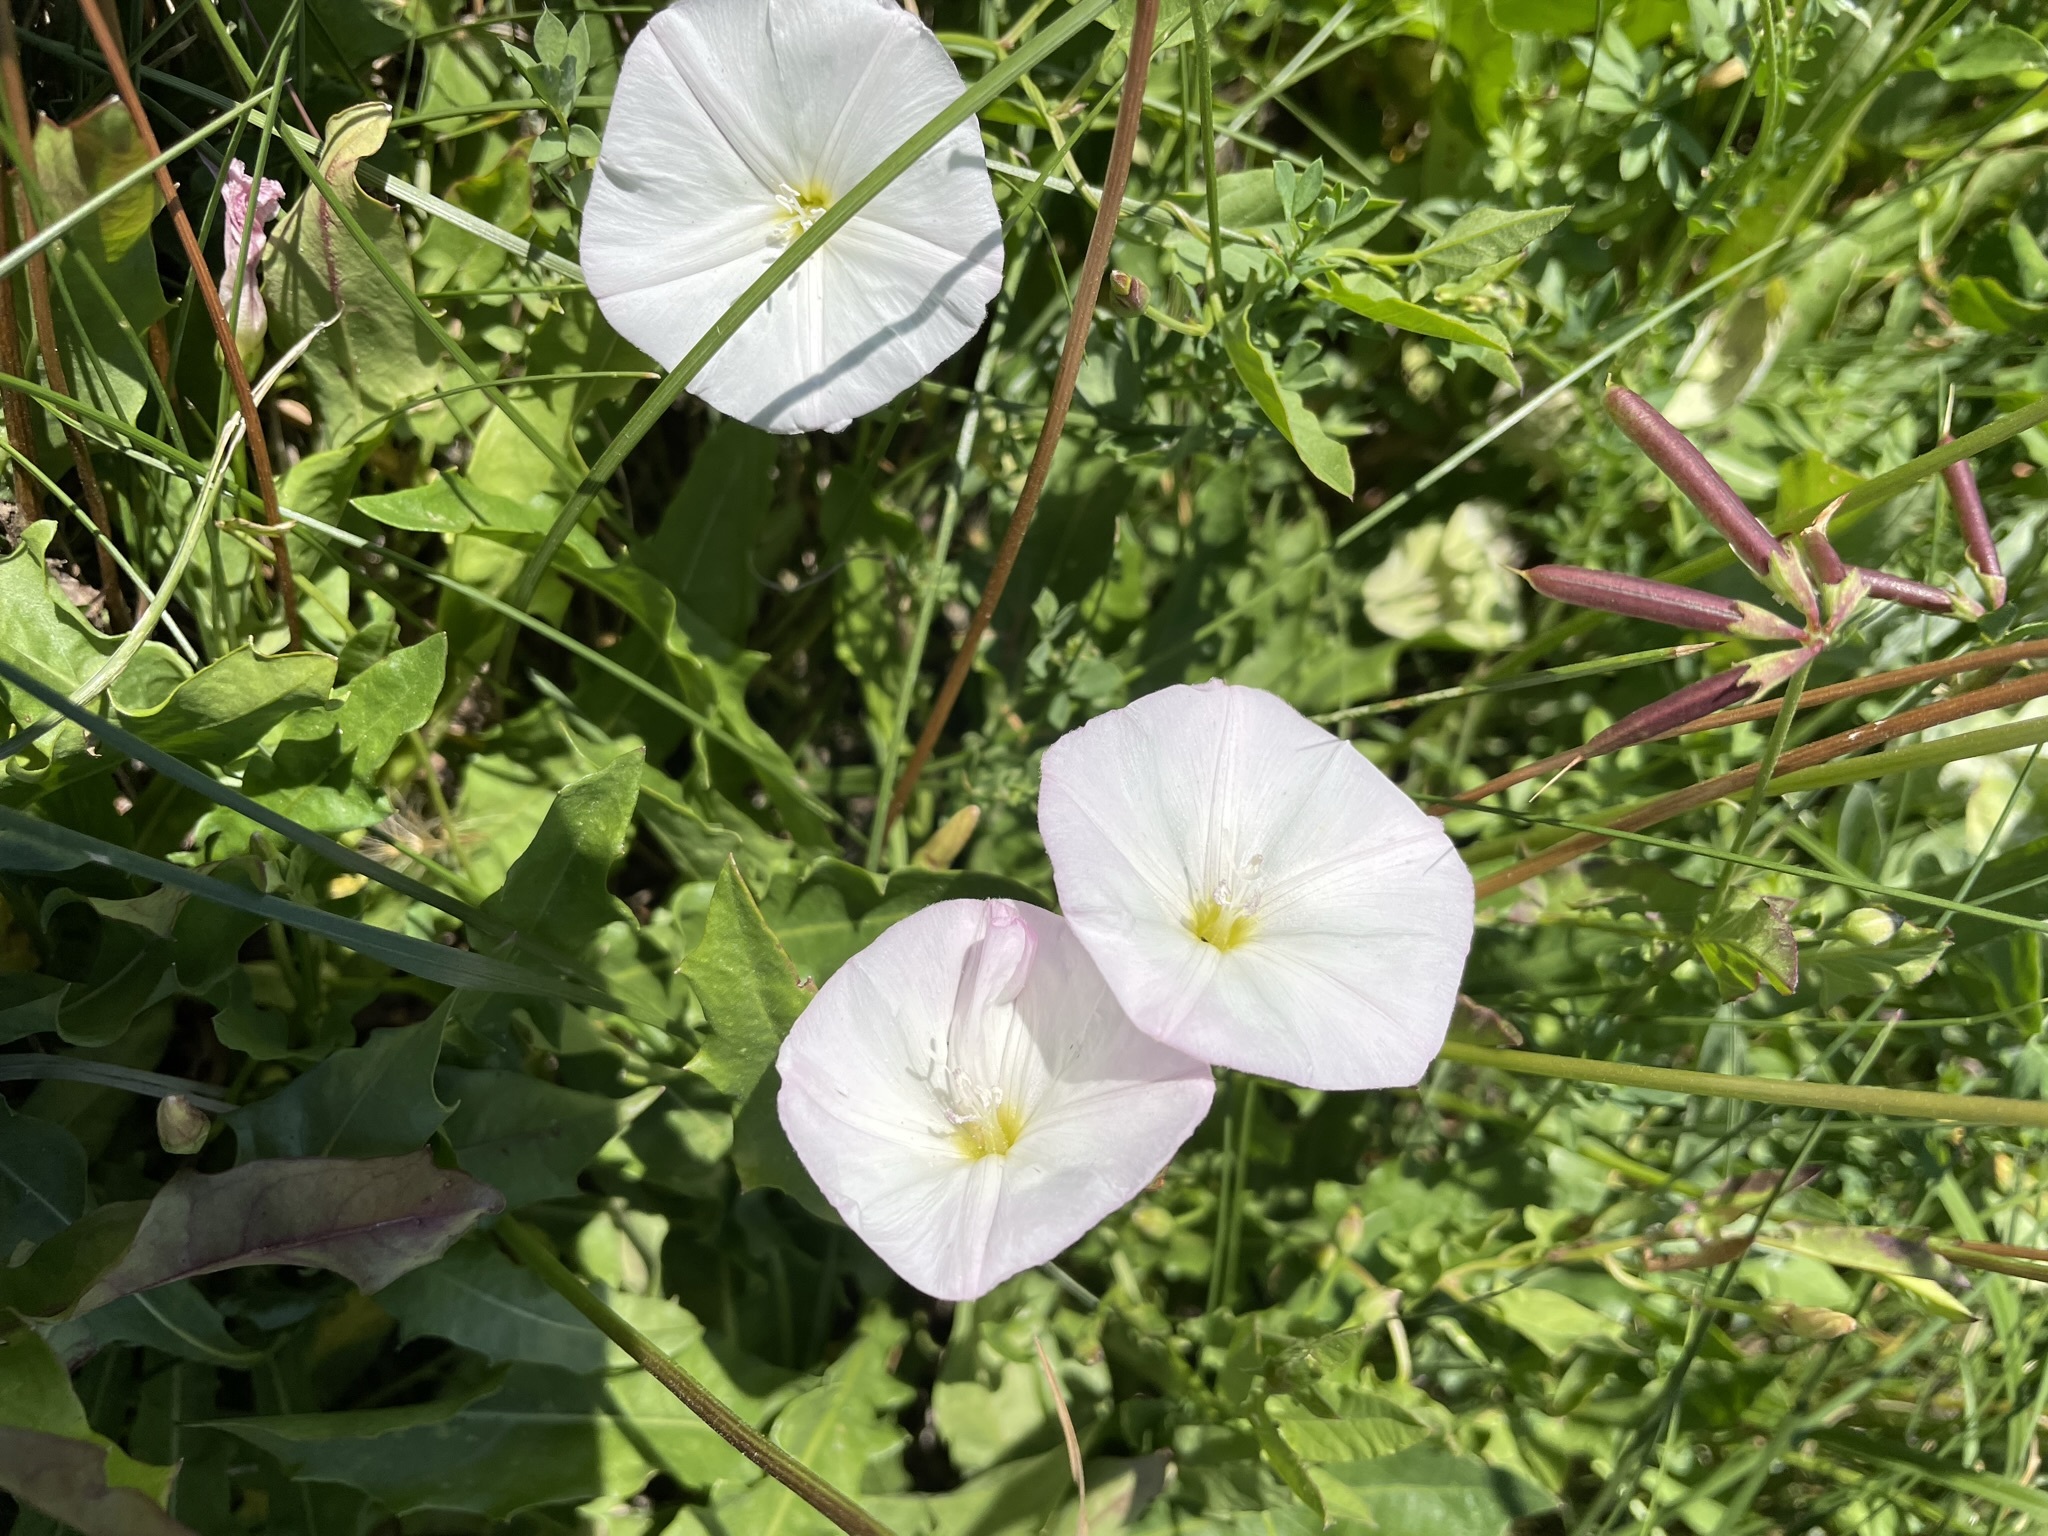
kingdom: Plantae
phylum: Tracheophyta
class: Magnoliopsida
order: Solanales
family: Convolvulaceae
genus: Convolvulus
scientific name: Convolvulus arvensis
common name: Field bindweed
